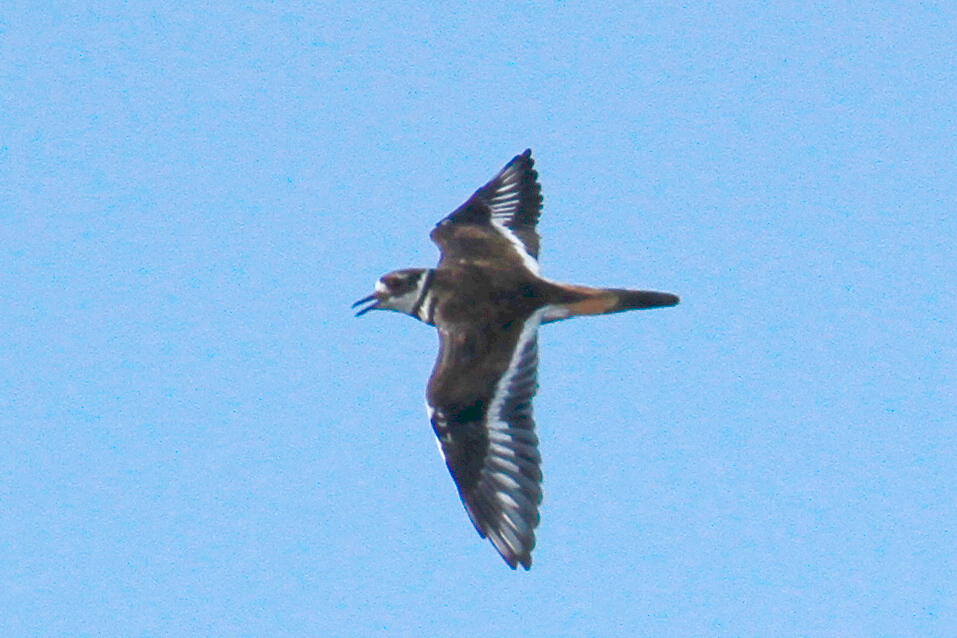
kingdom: Animalia
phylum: Chordata
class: Aves
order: Charadriiformes
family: Charadriidae
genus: Charadrius
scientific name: Charadrius vociferus
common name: Killdeer
